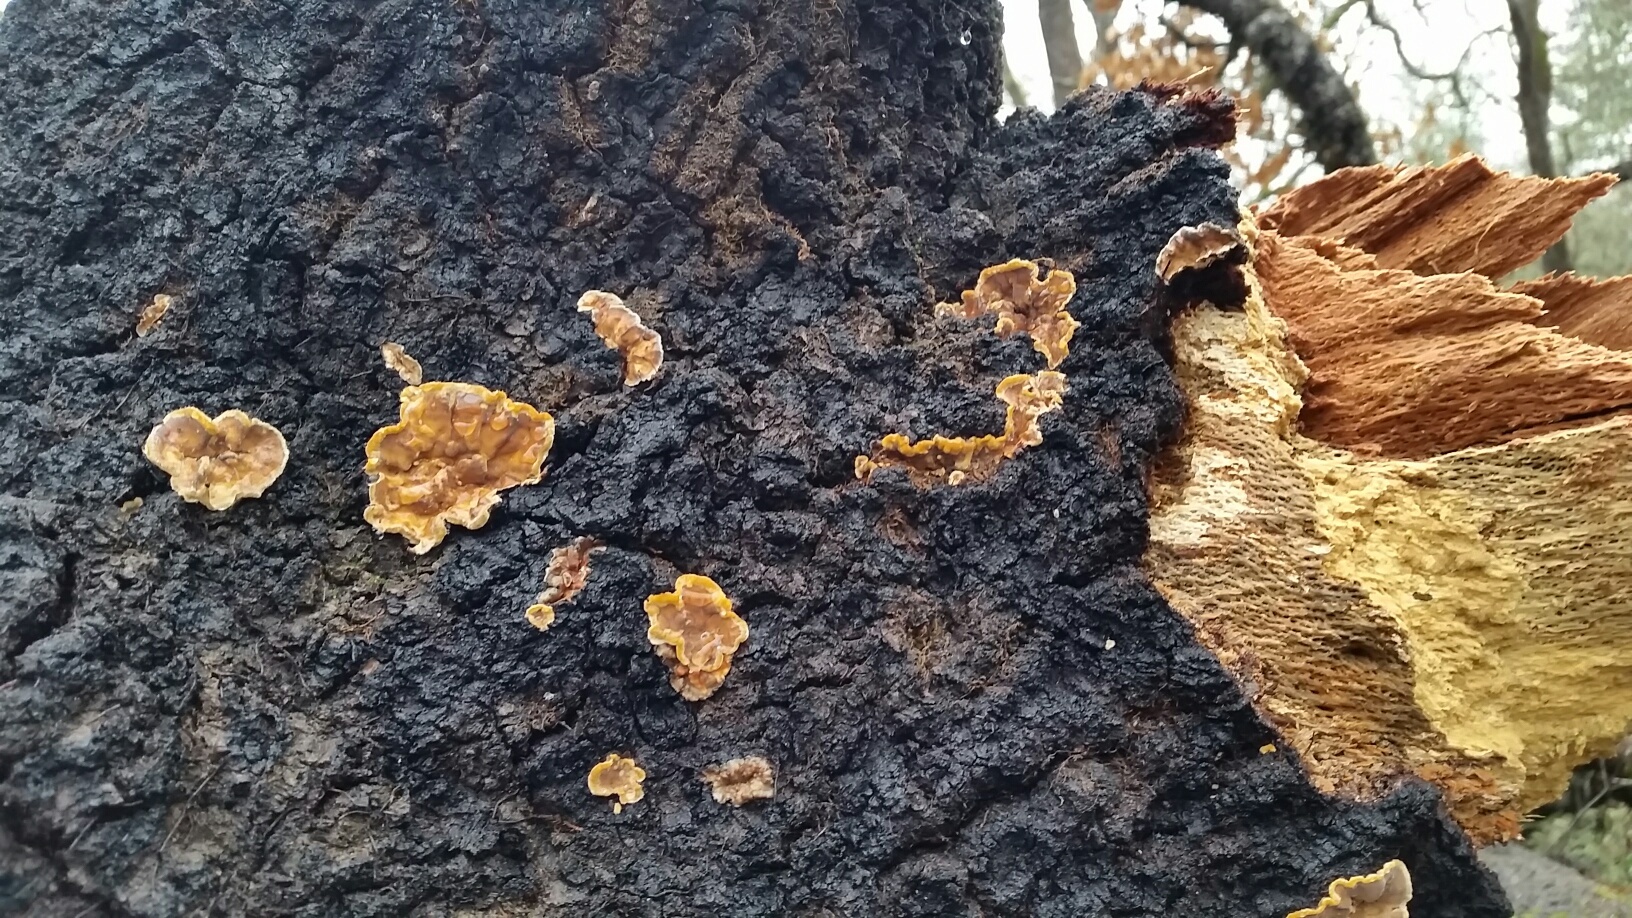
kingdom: Fungi
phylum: Basidiomycota
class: Agaricomycetes
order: Russulales
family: Stereaceae
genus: Stereum
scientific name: Stereum hirsutum
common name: Hairy curtain crust
